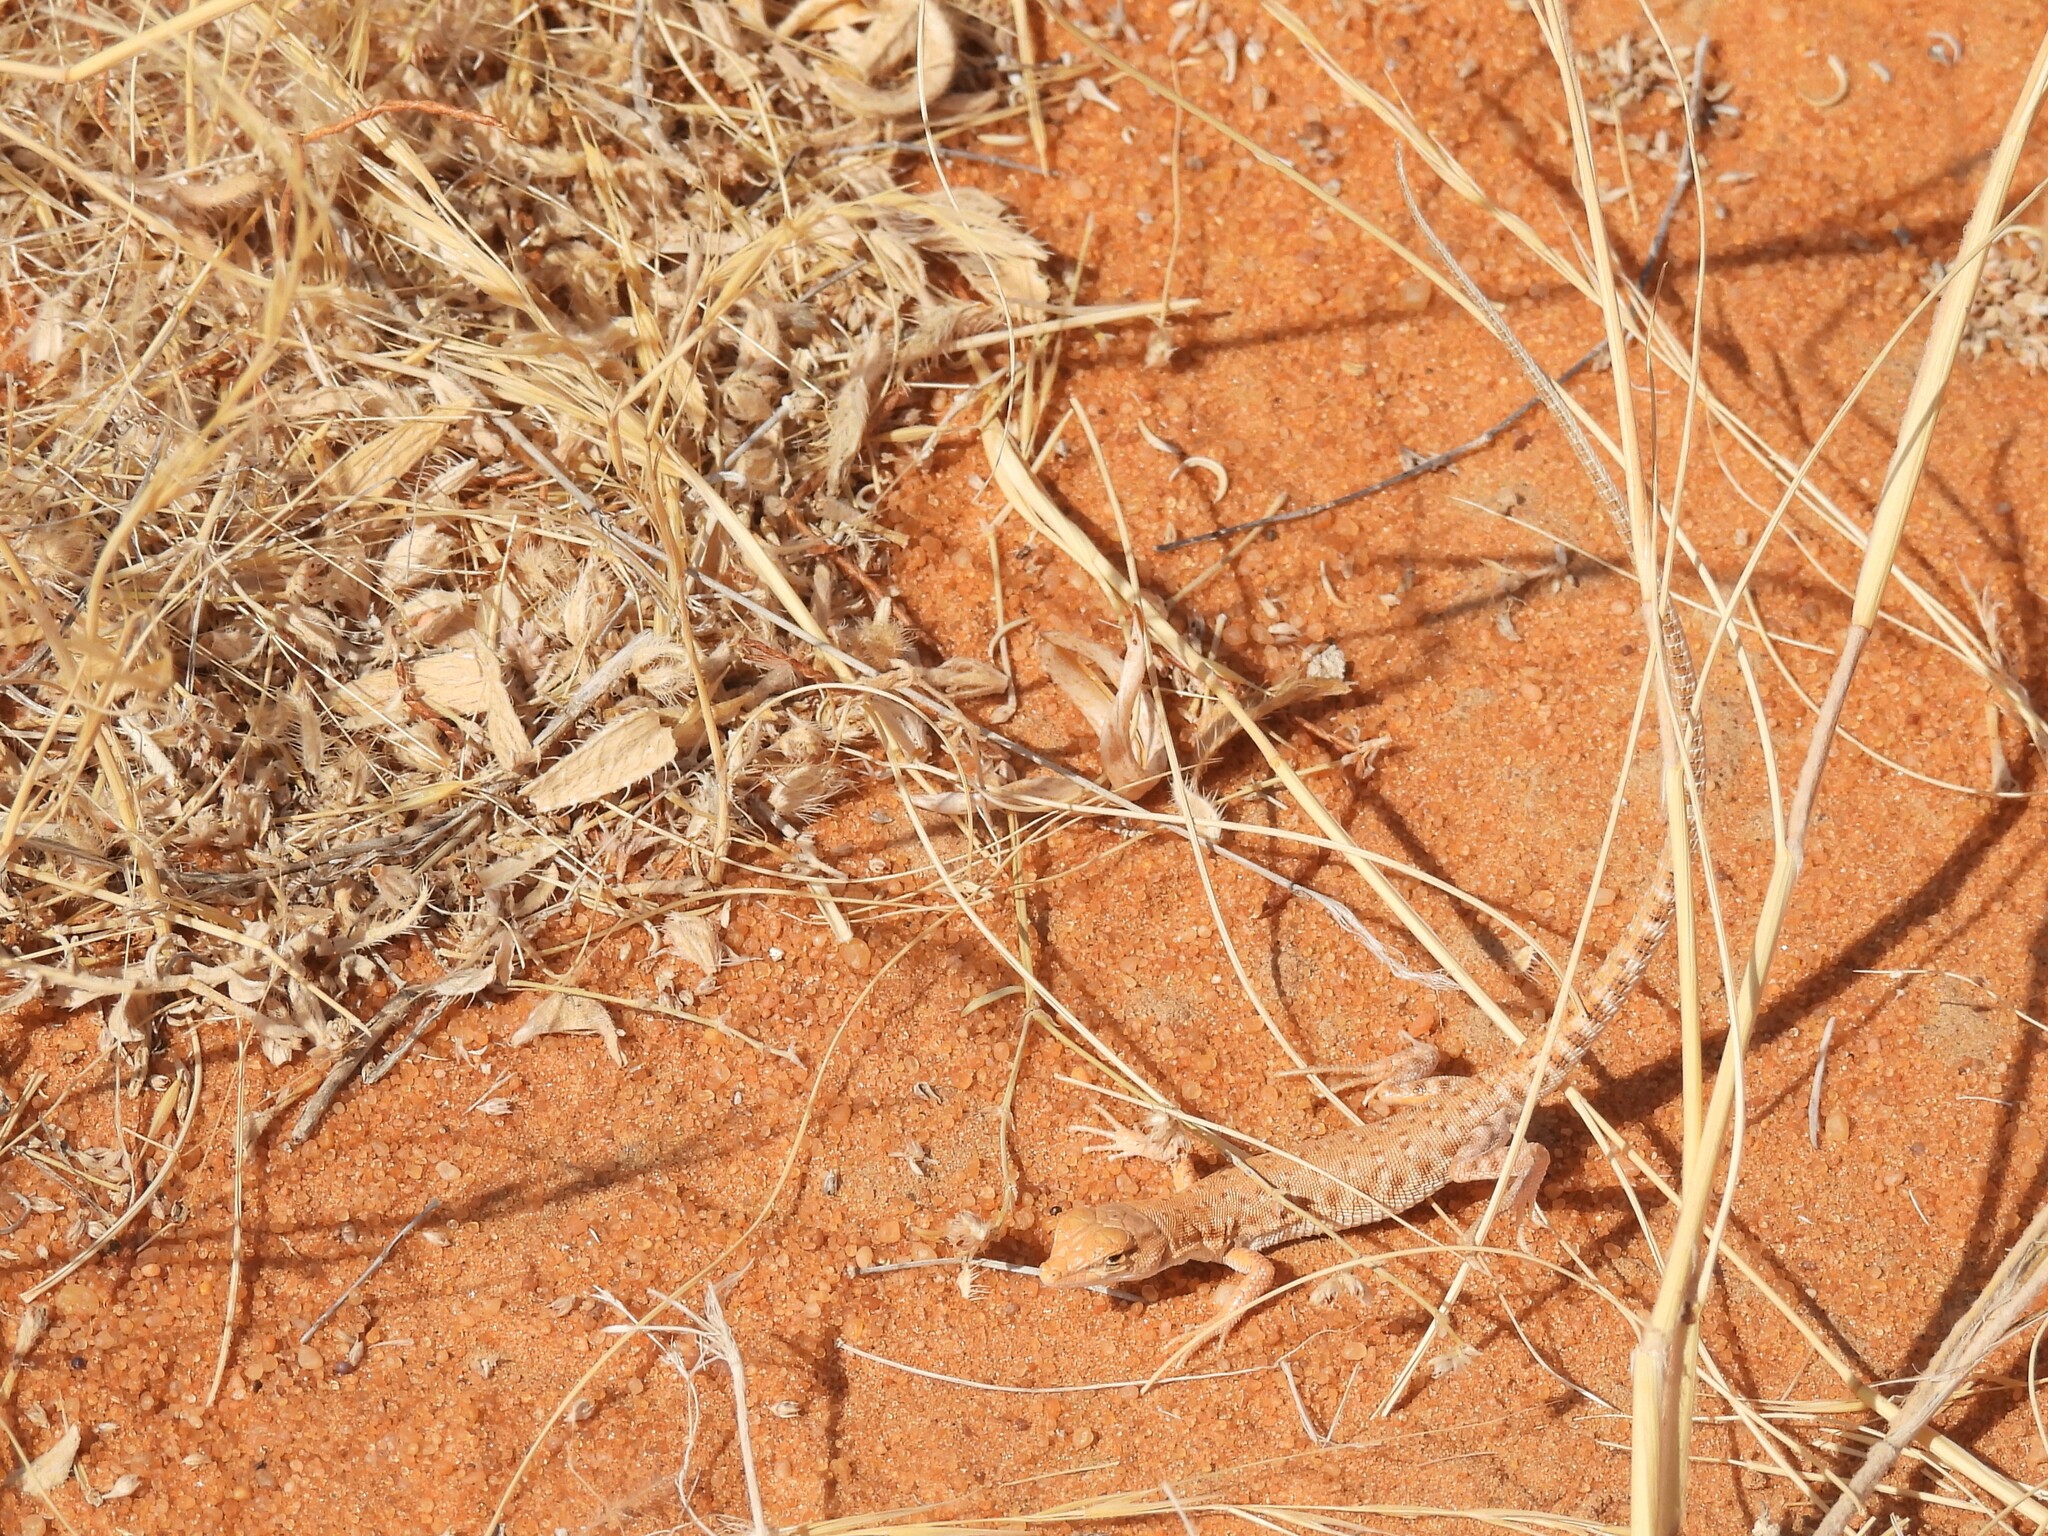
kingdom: Animalia
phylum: Chordata
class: Squamata
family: Lacertidae
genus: Mesalina
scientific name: Mesalina brevirostris
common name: Blanford's short-nosed desert lizard
